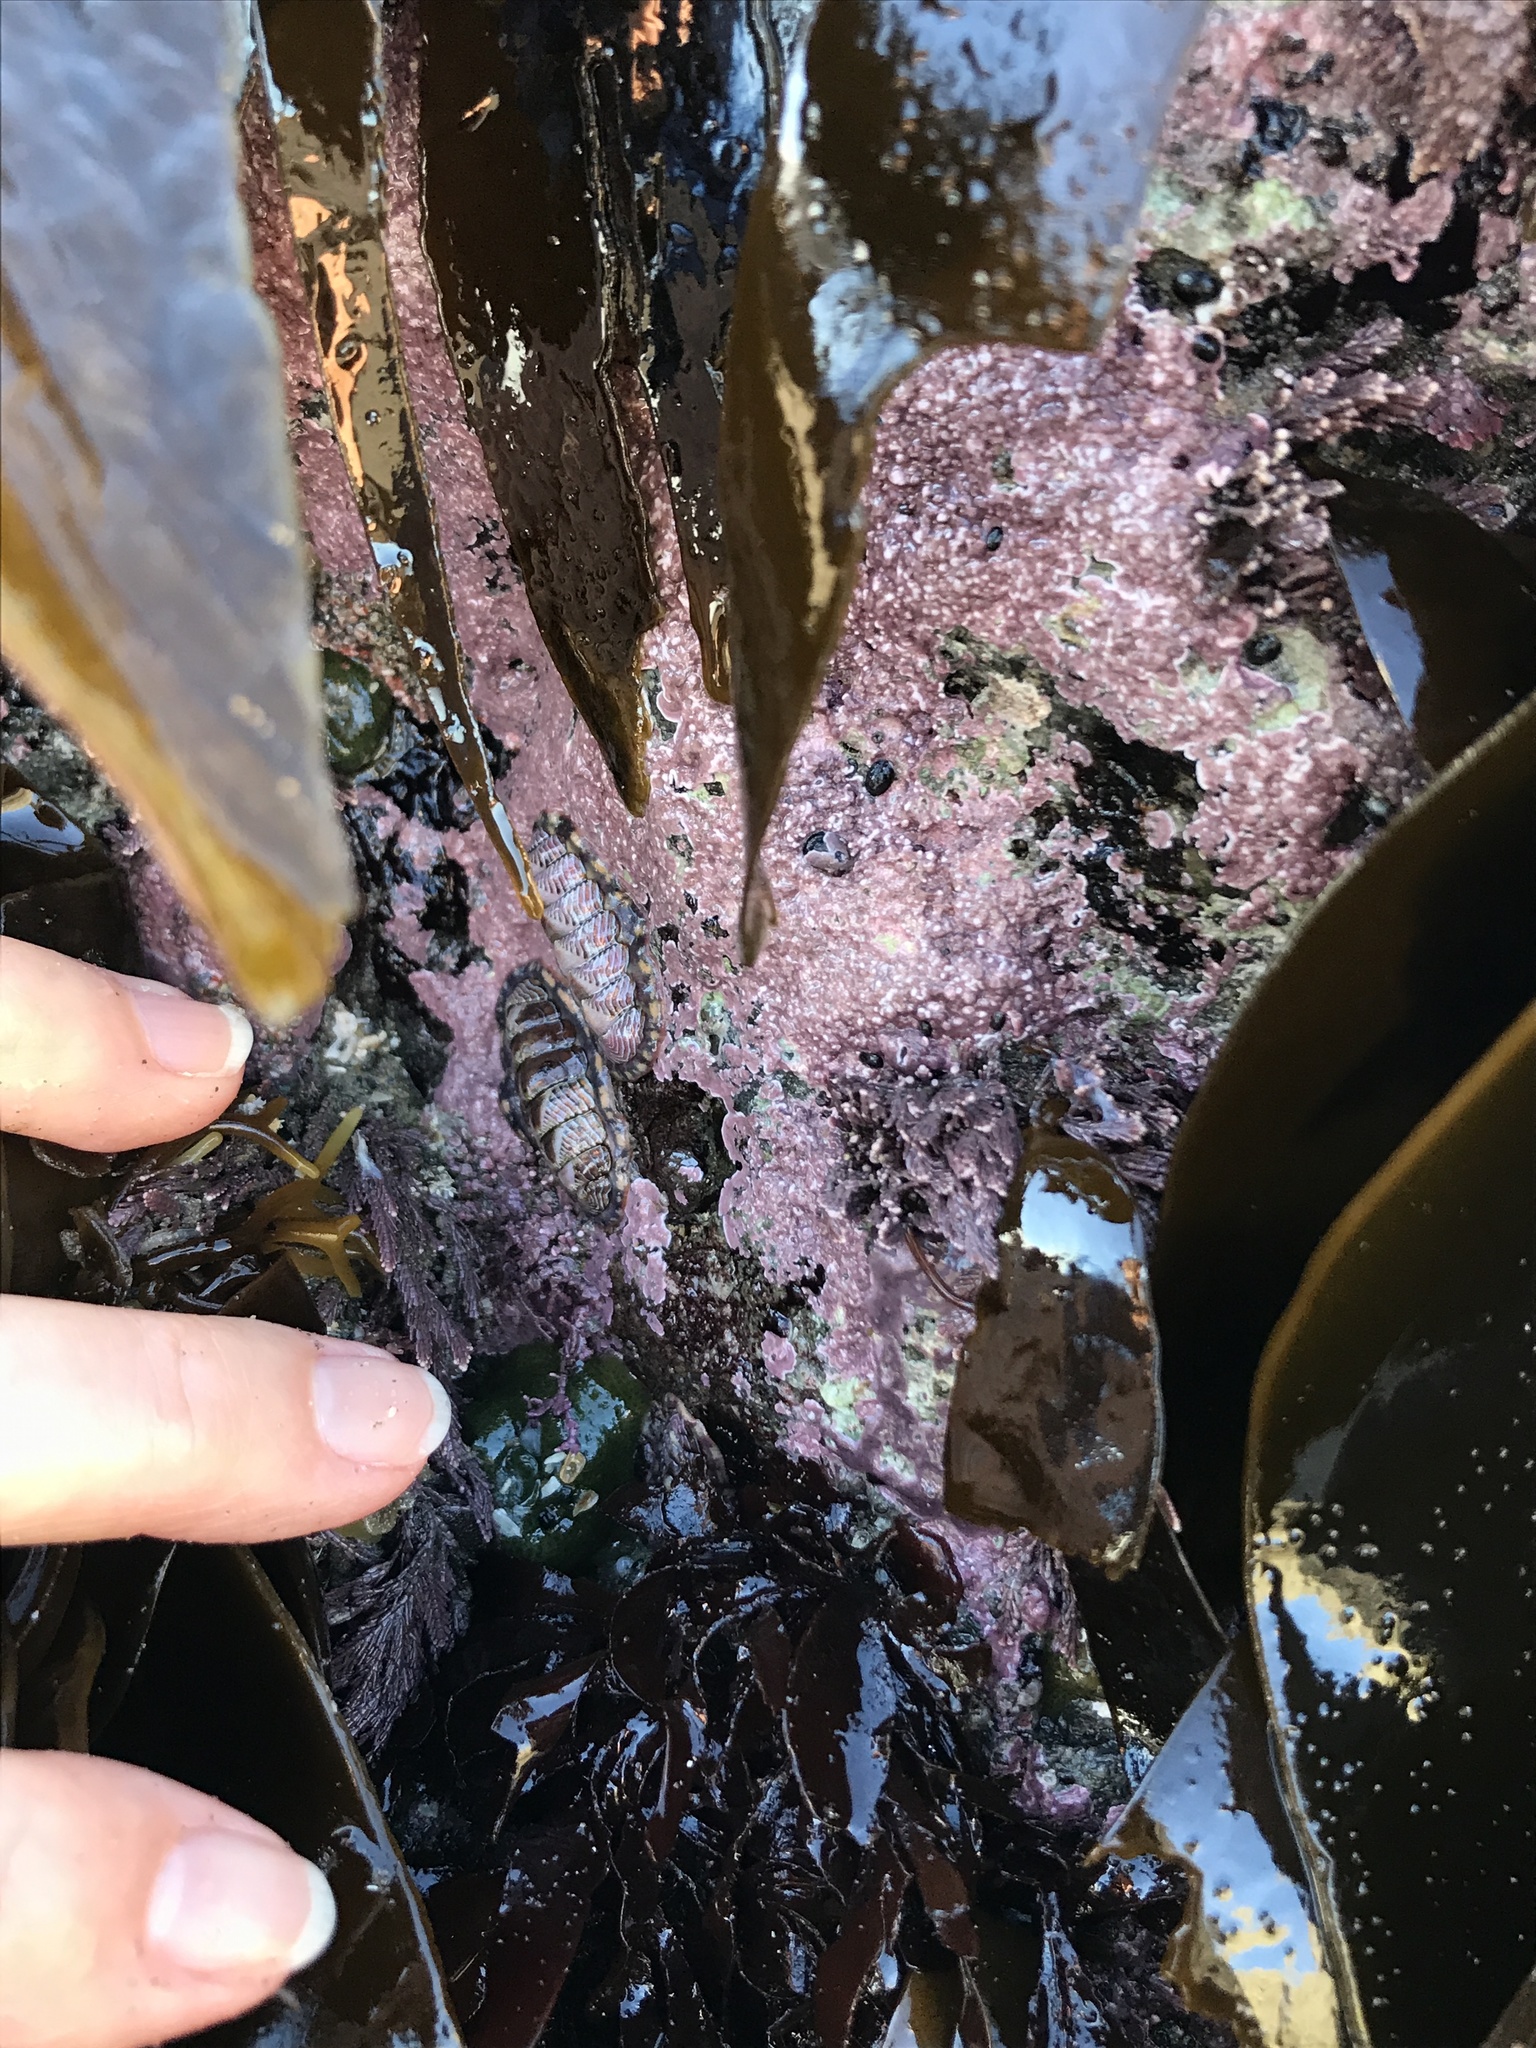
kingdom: Animalia
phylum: Mollusca
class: Polyplacophora
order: Chitonida
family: Tonicellidae
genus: Tonicella
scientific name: Tonicella lineata
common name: Lined chiton
